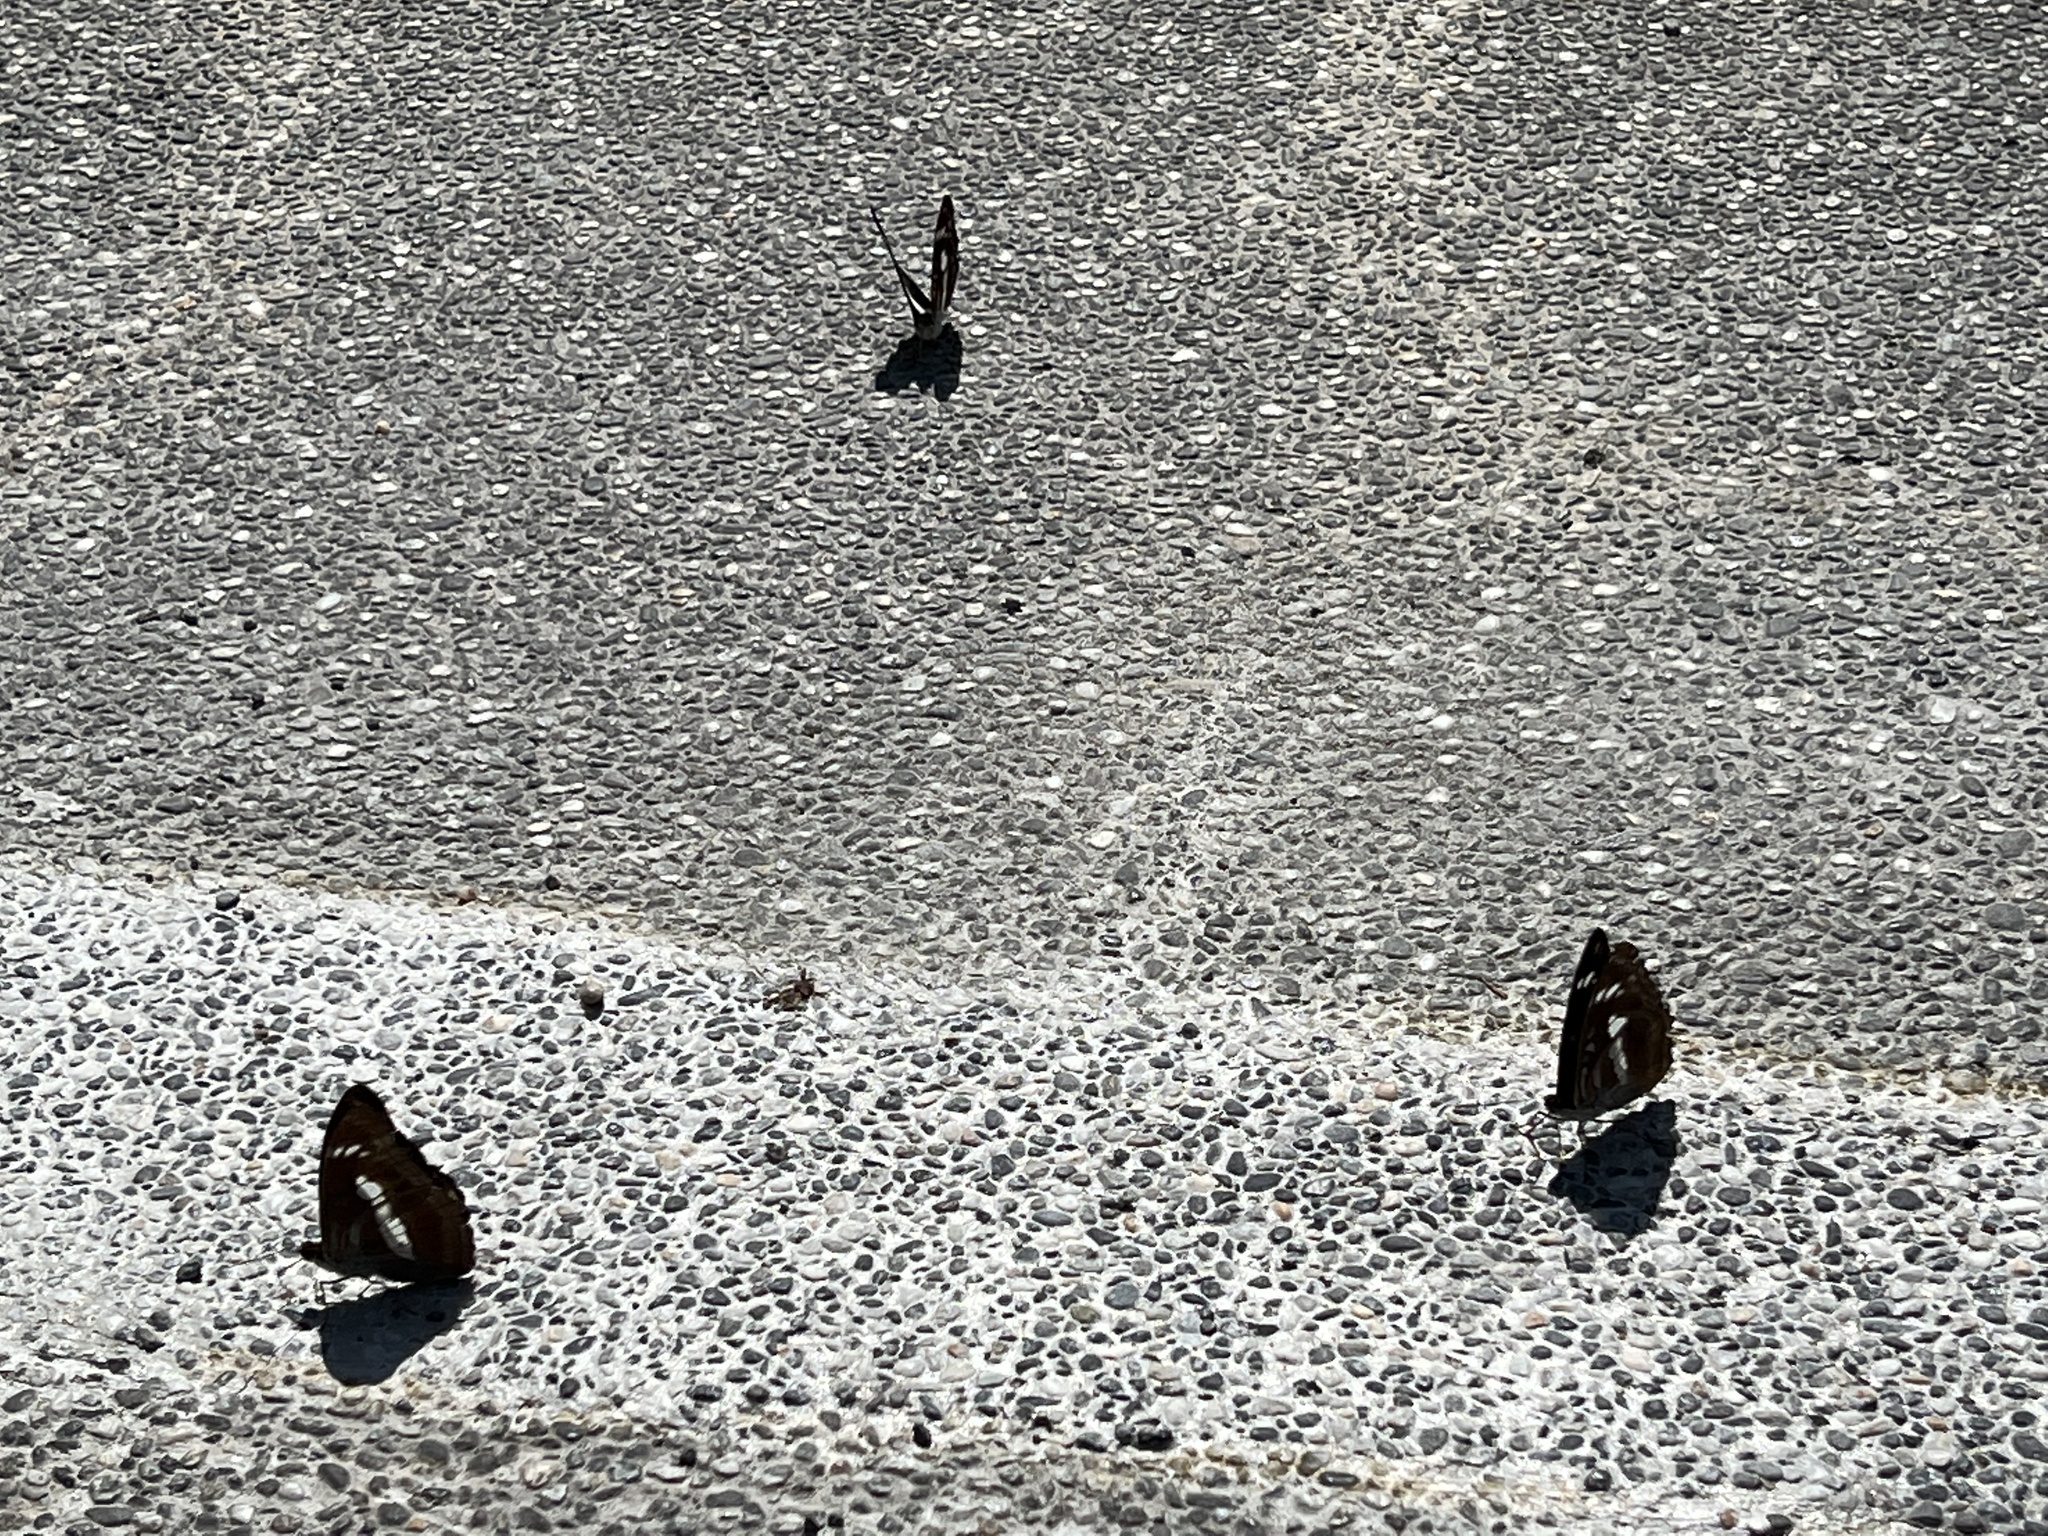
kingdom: Animalia
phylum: Arthropoda
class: Insecta
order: Lepidoptera
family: Nymphalidae
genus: Parathyma
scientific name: Parathyma selenophora
